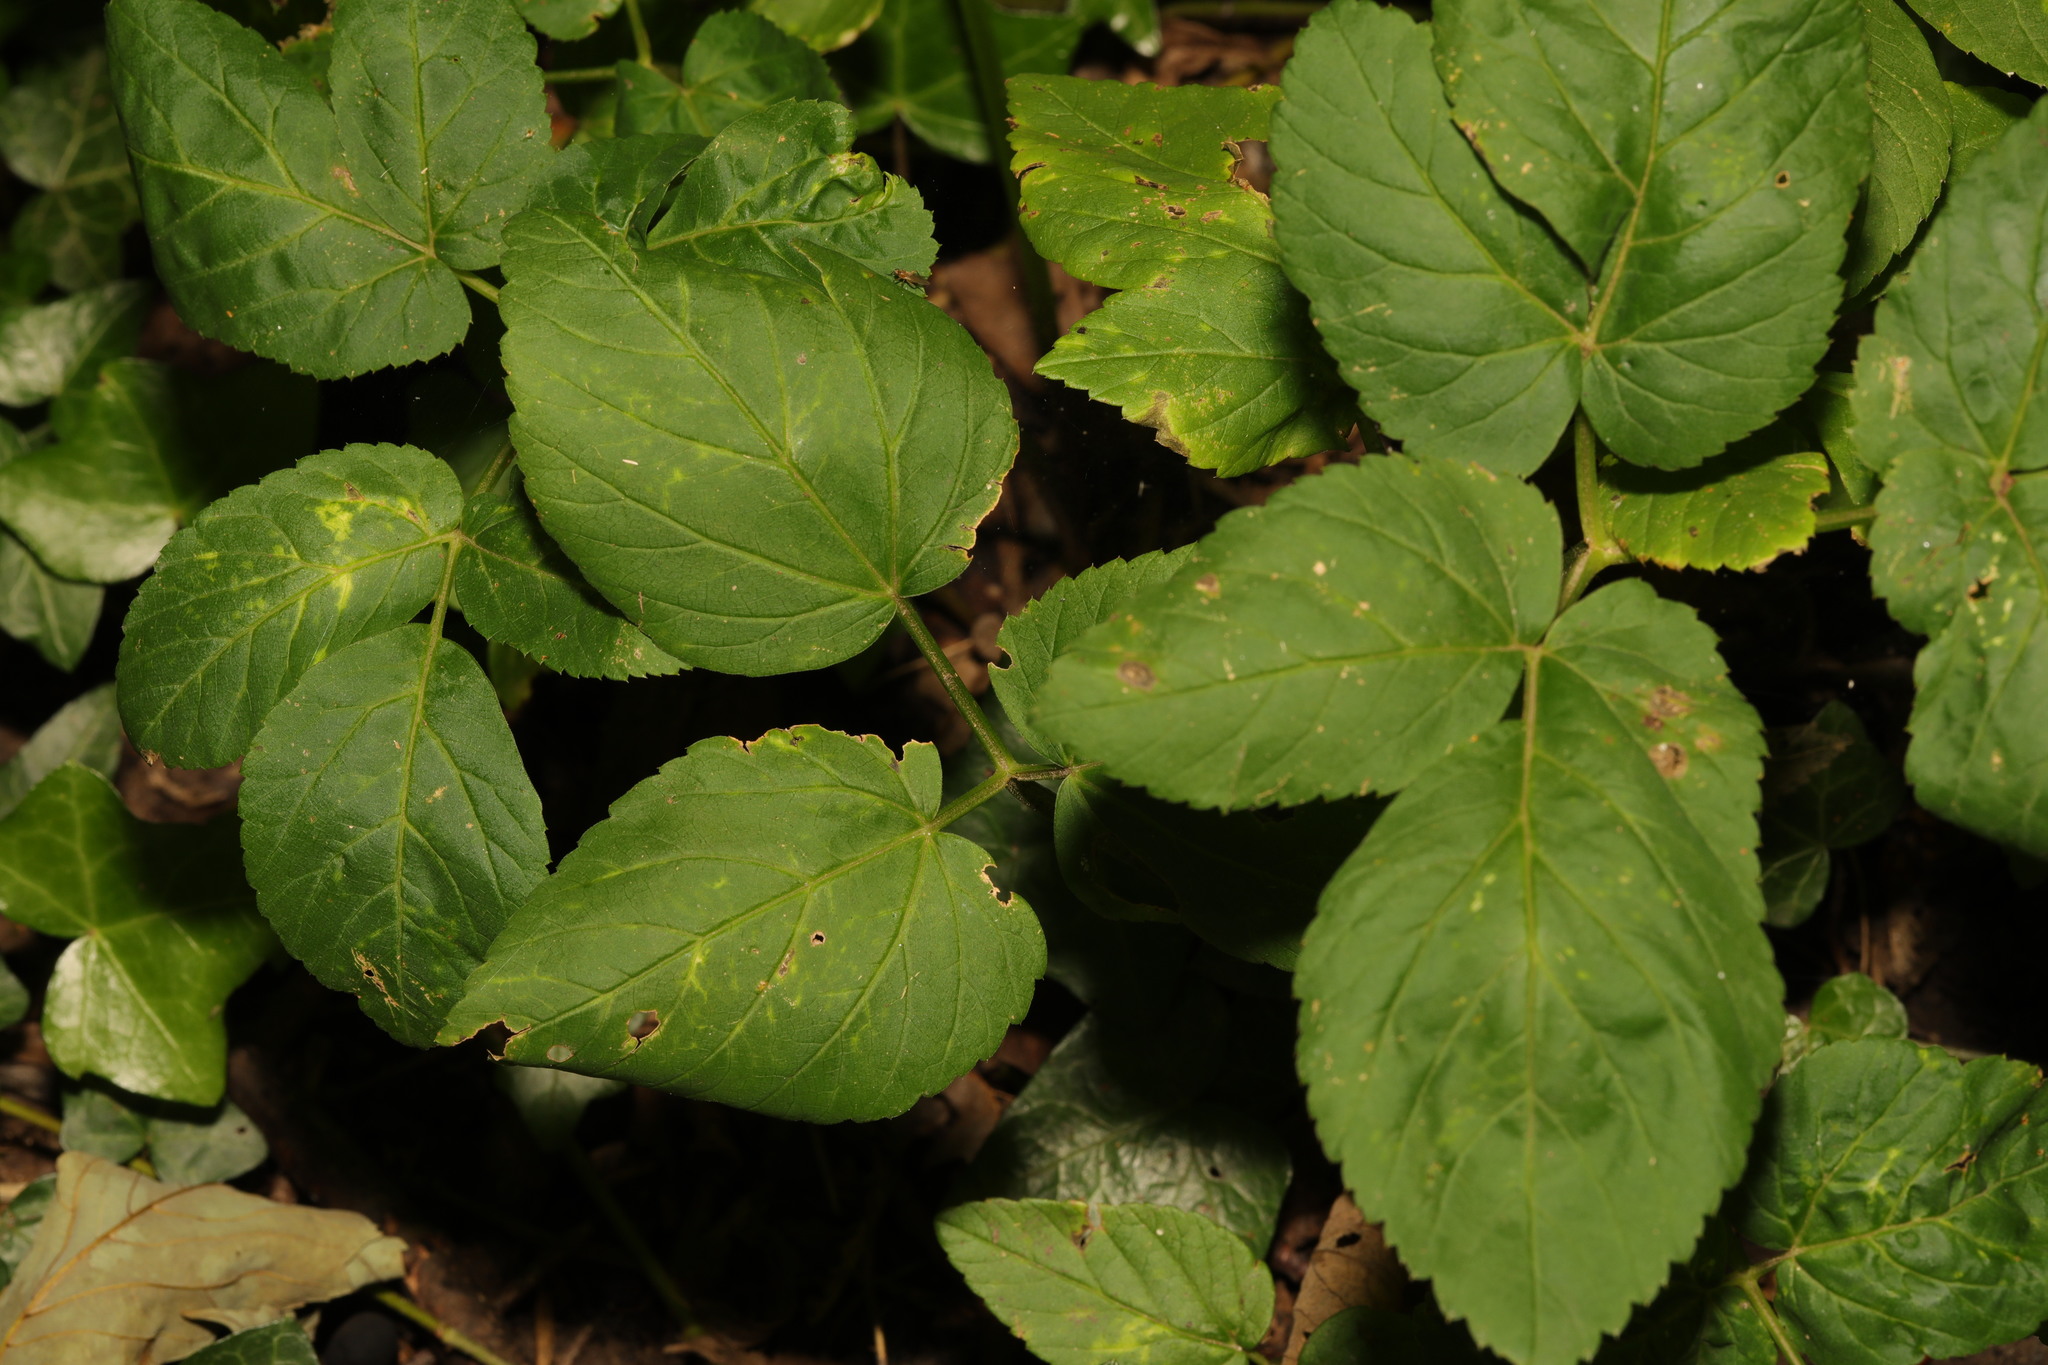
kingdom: Plantae
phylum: Tracheophyta
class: Magnoliopsida
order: Apiales
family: Apiaceae
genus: Aegopodium
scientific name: Aegopodium podagraria
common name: Ground-elder
